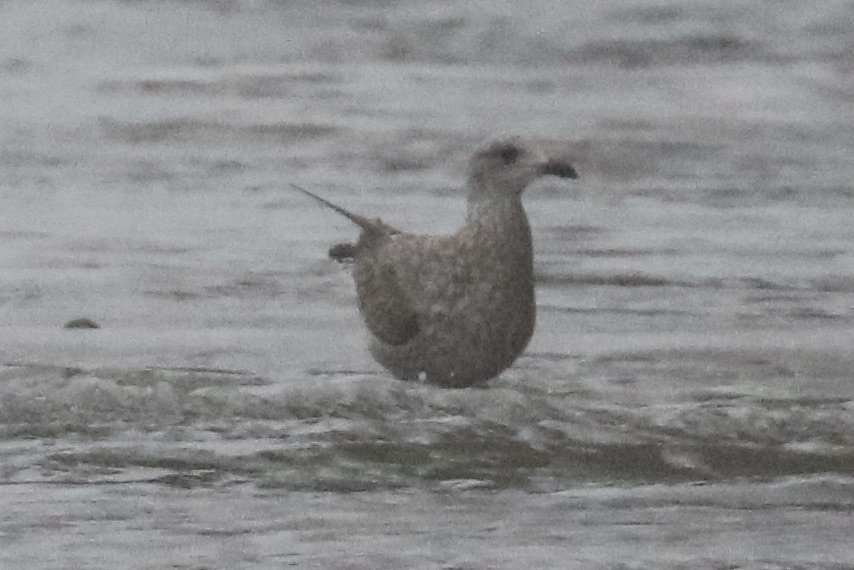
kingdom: Animalia
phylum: Chordata
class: Aves
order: Charadriiformes
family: Laridae
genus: Larus
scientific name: Larus argentatus
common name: Herring gull
